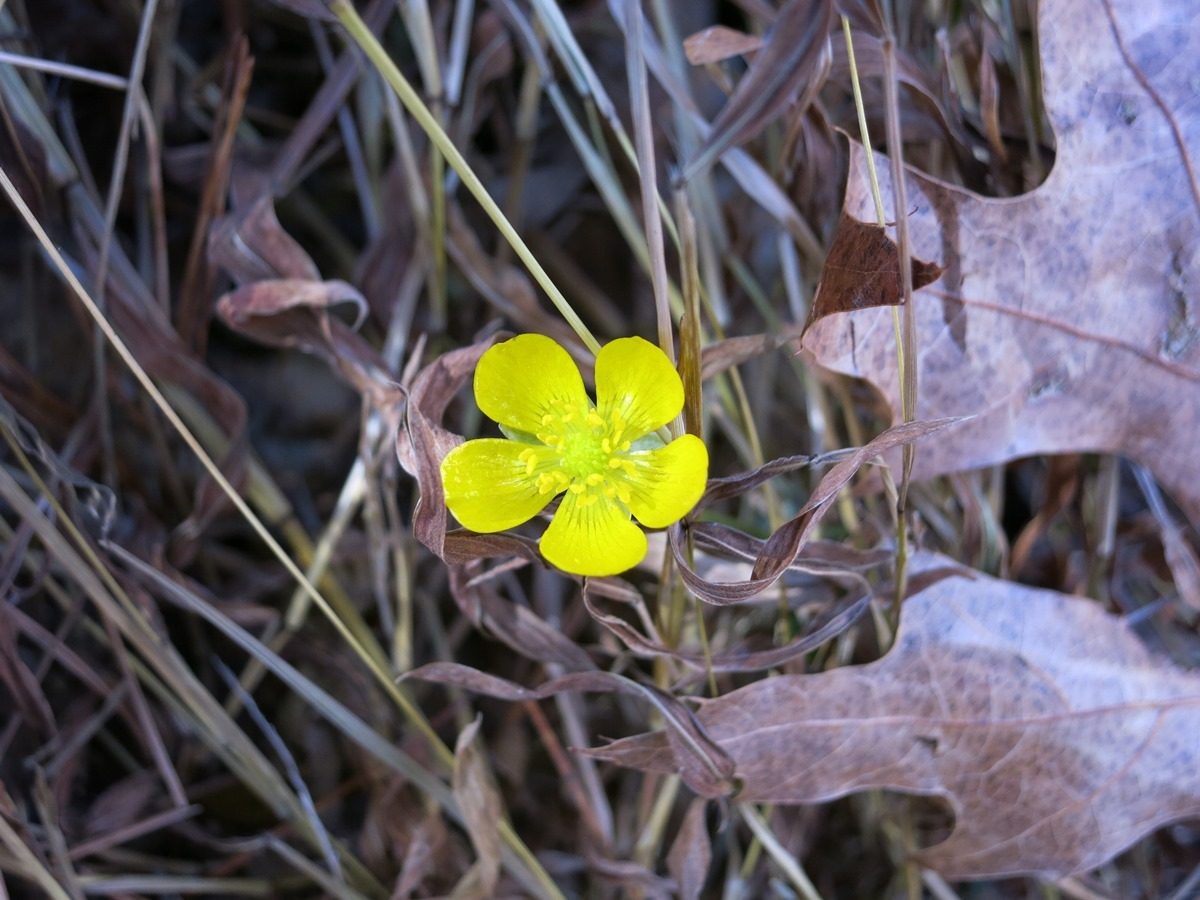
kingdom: Plantae
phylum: Tracheophyta
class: Magnoliopsida
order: Ranunculales
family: Ranunculaceae
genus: Ranunculus
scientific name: Ranunculus repens
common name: Creeping buttercup
